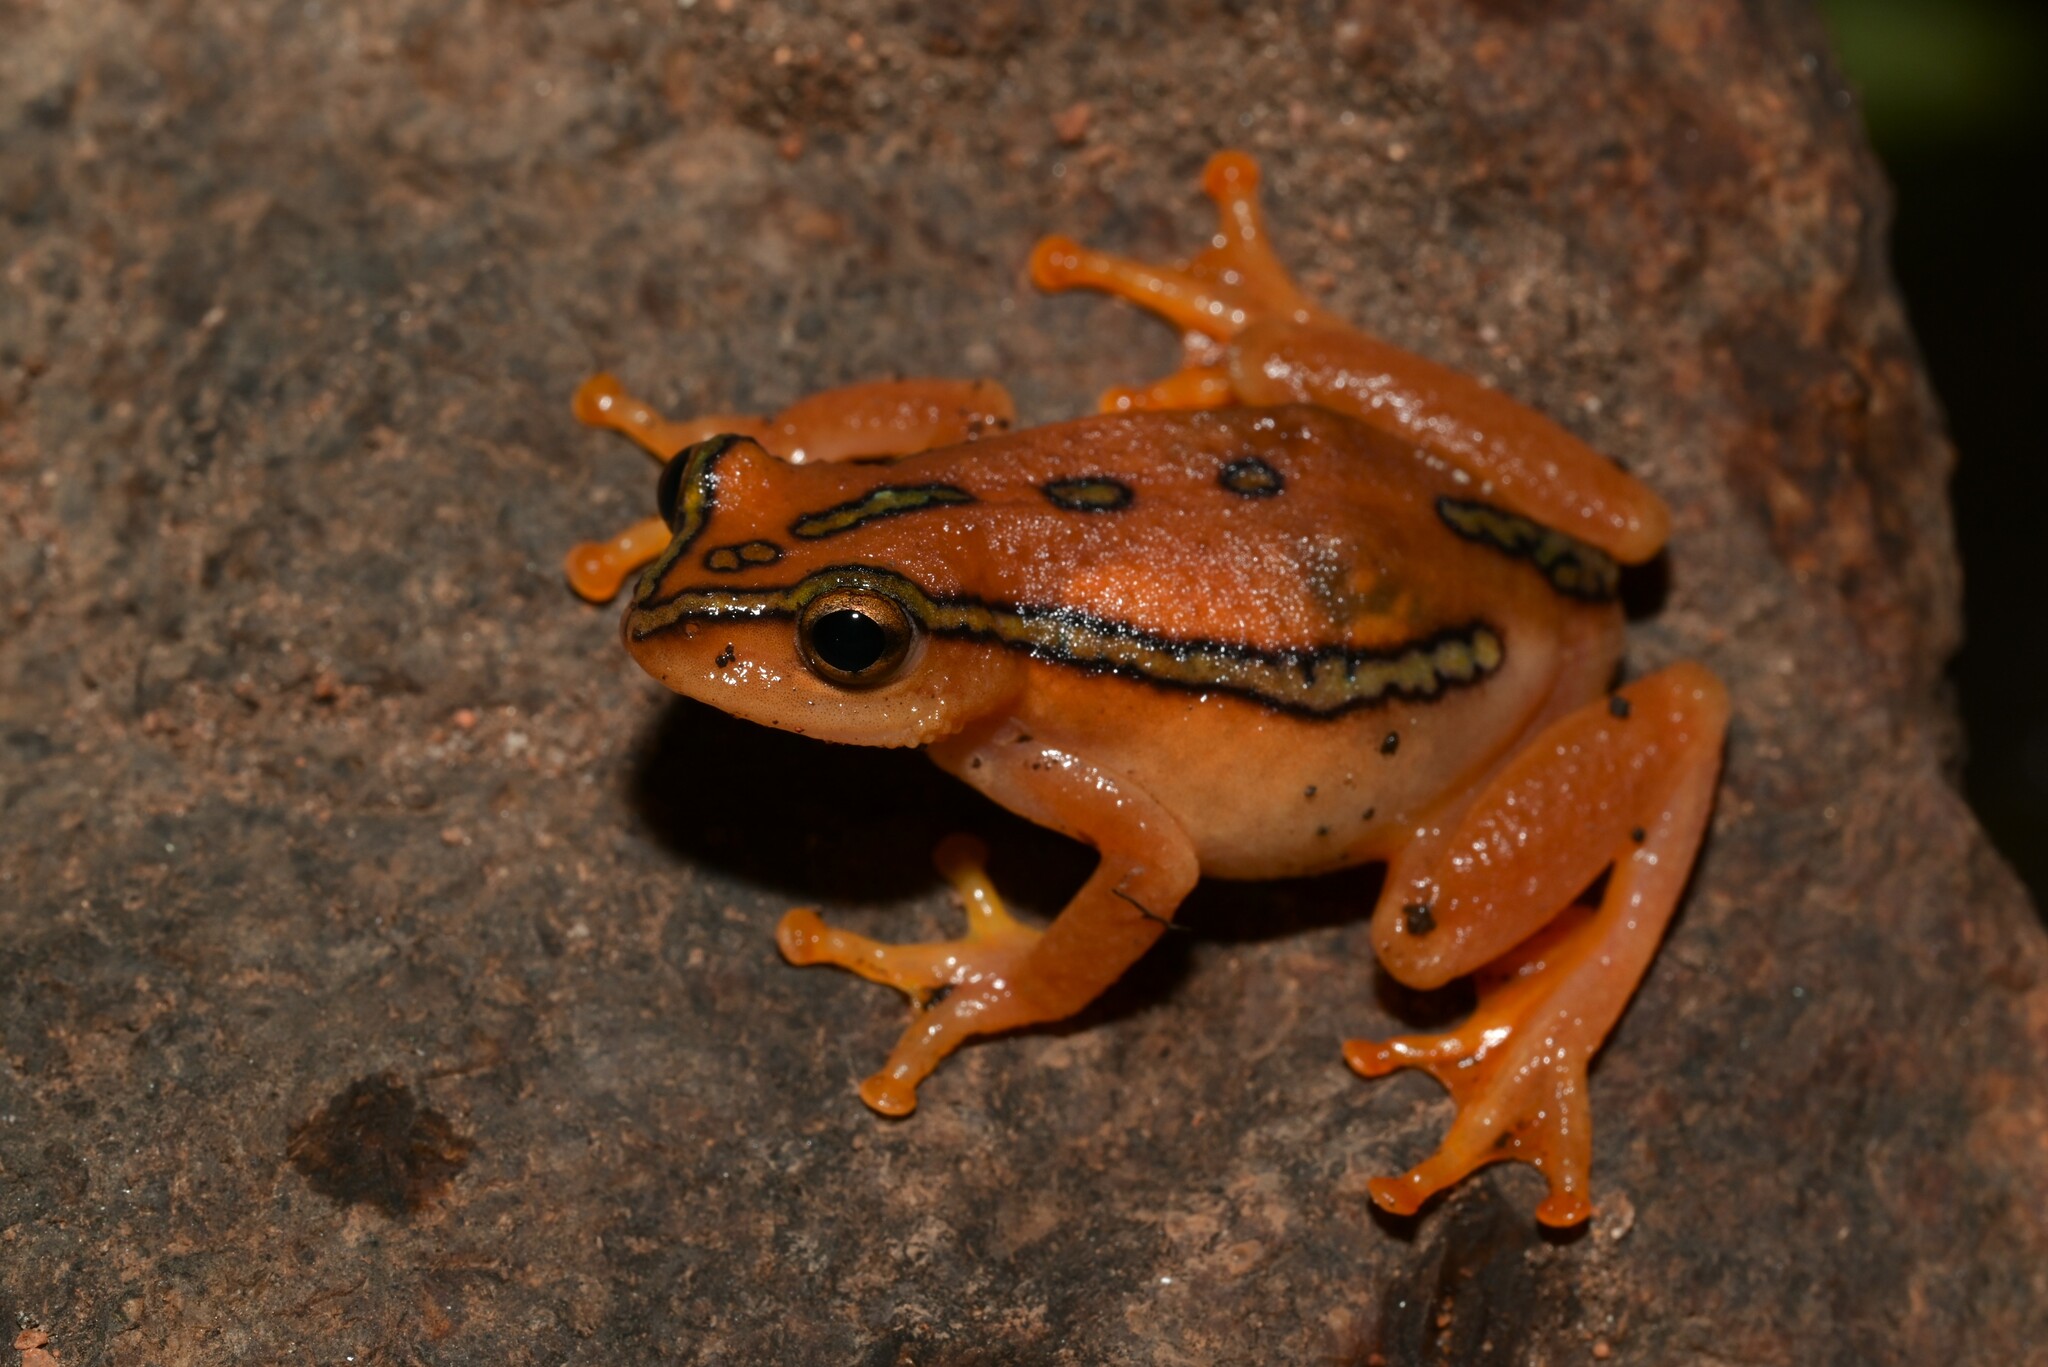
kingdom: Animalia
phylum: Chordata
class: Amphibia
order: Anura
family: Hyperoliidae
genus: Hyperolius
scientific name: Hyperolius substriatus
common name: Spotted reed frog
